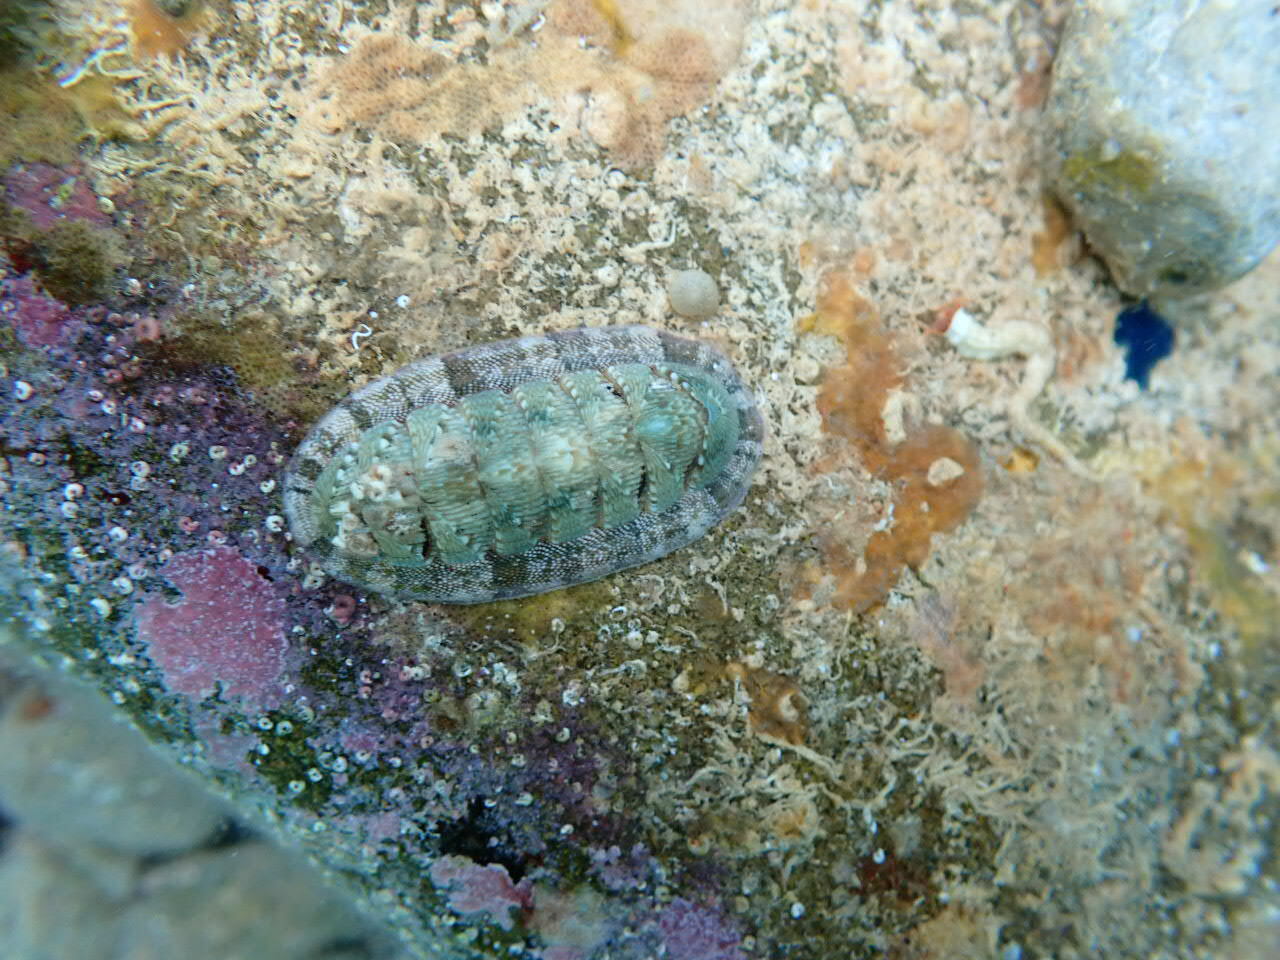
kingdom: Animalia
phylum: Mollusca
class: Polyplacophora
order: Chitonida
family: Chitonidae
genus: Rhyssoplax
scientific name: Rhyssoplax olivacea
